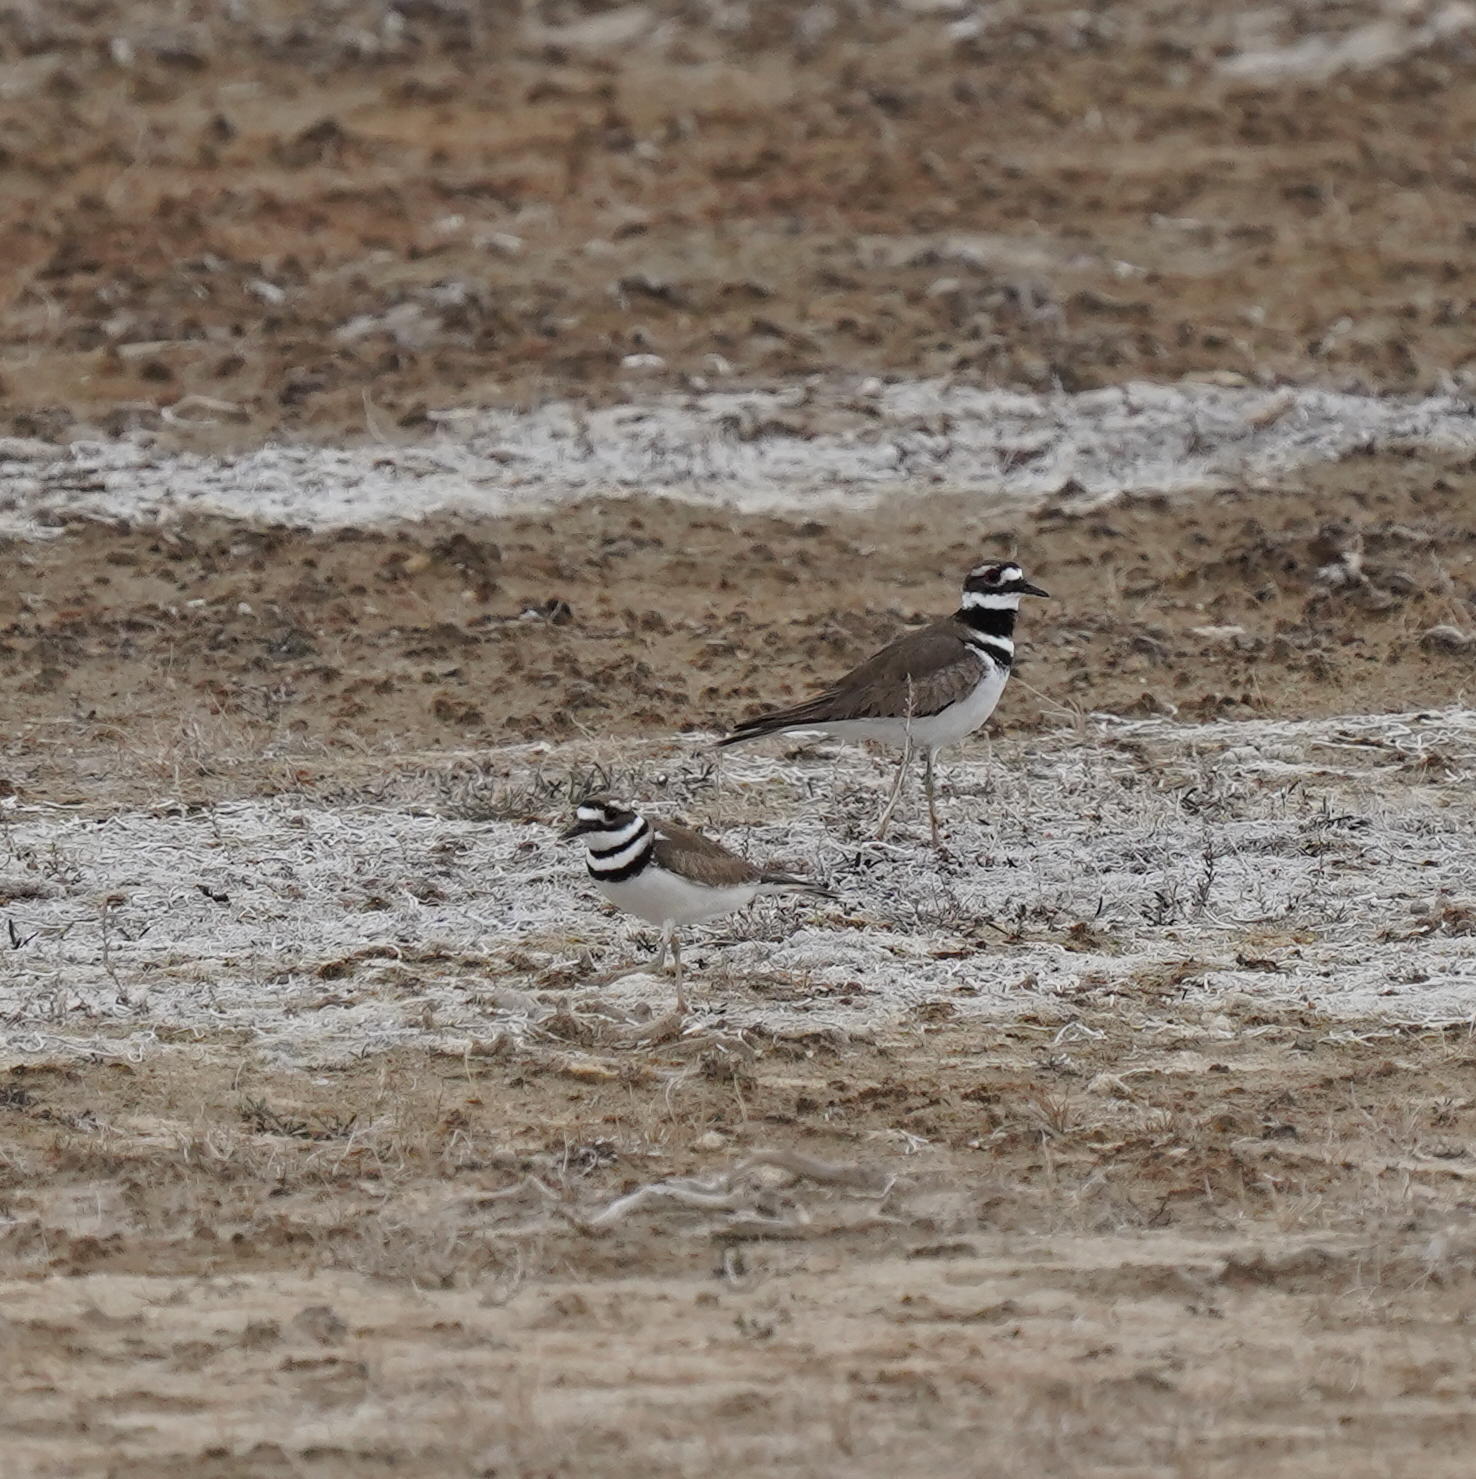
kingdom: Animalia
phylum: Chordata
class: Aves
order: Charadriiformes
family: Charadriidae
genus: Charadrius
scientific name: Charadrius vociferus
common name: Killdeer
